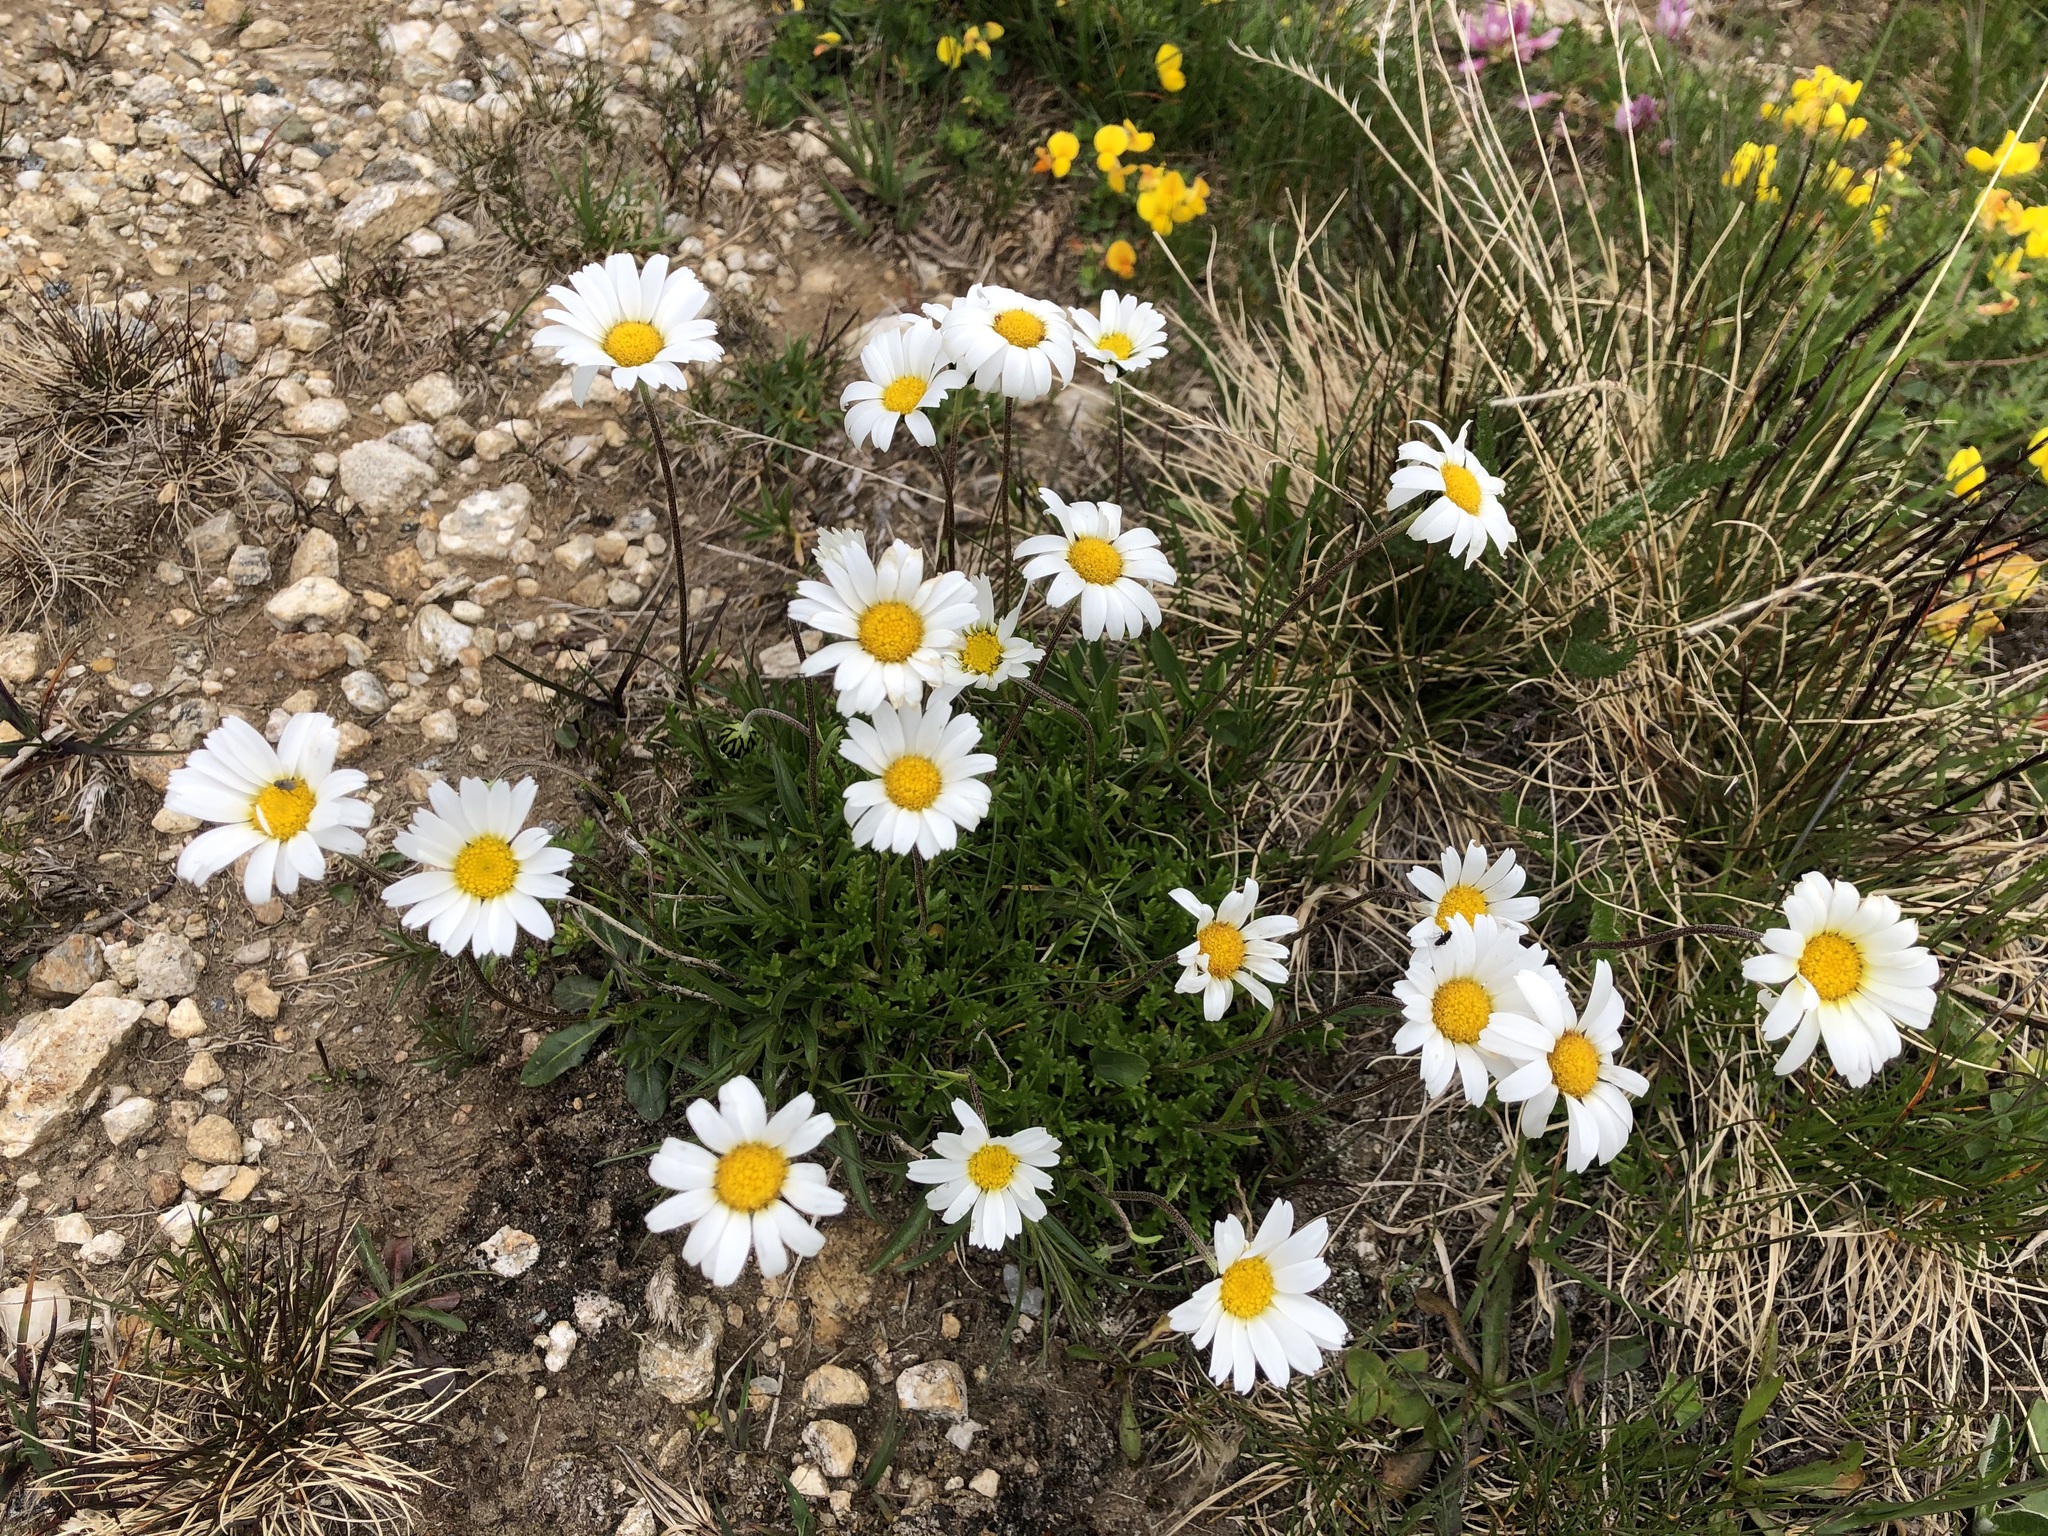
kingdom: Plantae
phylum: Tracheophyta
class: Magnoliopsida
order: Asterales
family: Asteraceae
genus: Leucanthemopsis
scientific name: Leucanthemopsis alpina
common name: Alpine moon daisy
